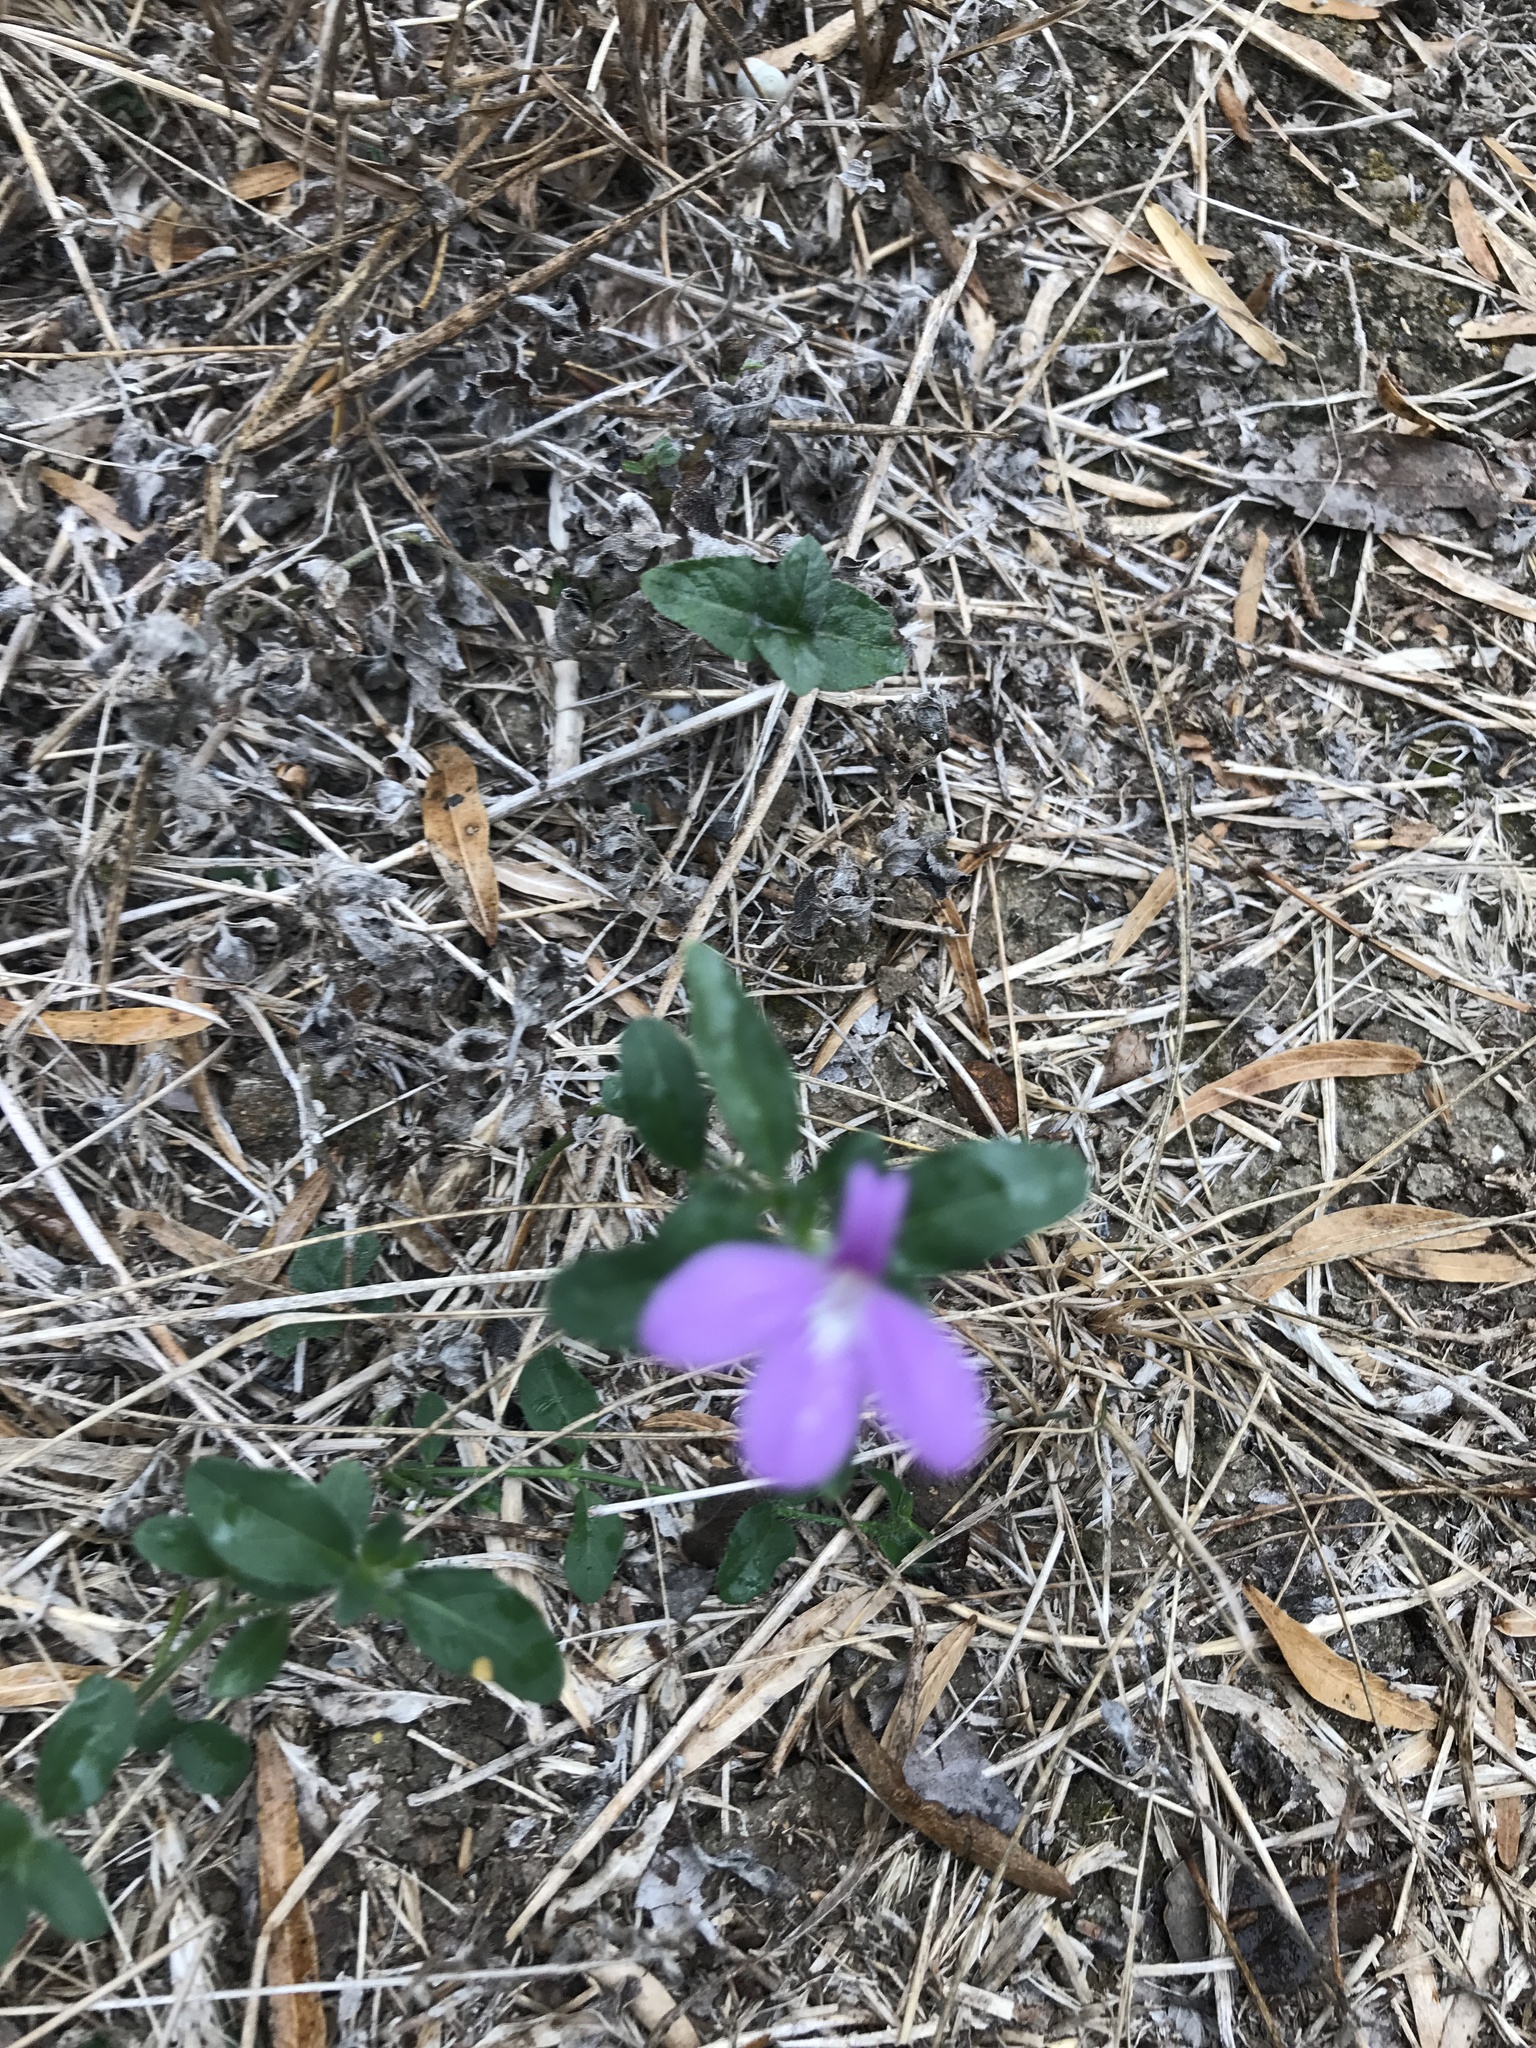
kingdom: Plantae
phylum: Tracheophyta
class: Magnoliopsida
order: Lamiales
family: Acanthaceae
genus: Justicia
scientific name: Justicia pilosella
